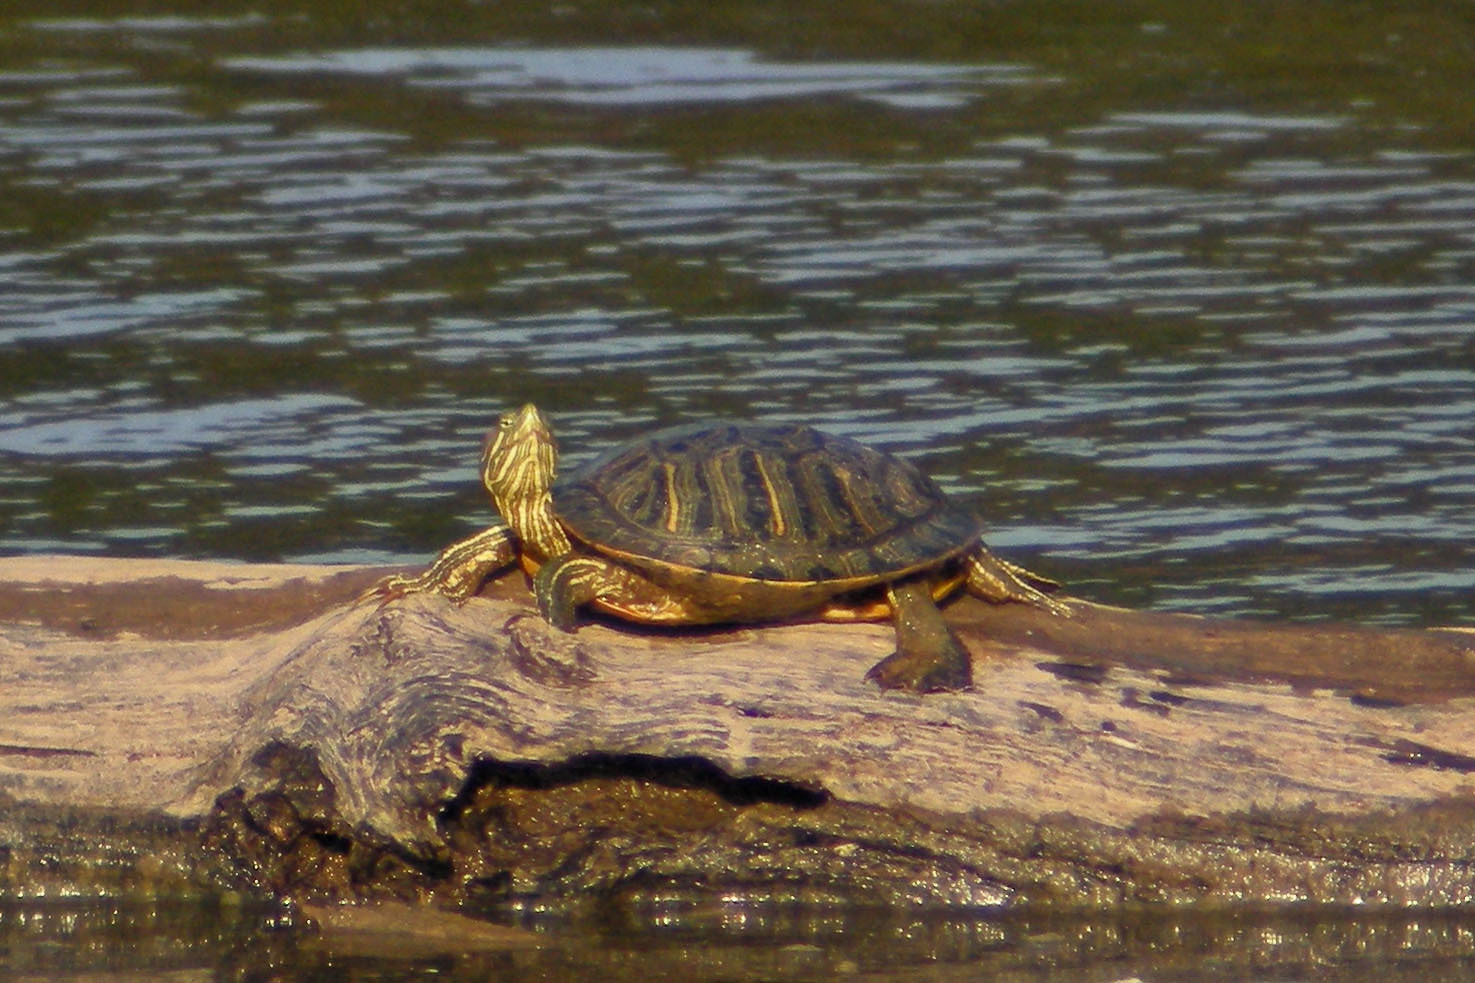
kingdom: Animalia
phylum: Chordata
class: Testudines
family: Emydidae
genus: Trachemys
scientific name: Trachemys scripta
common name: Slider
